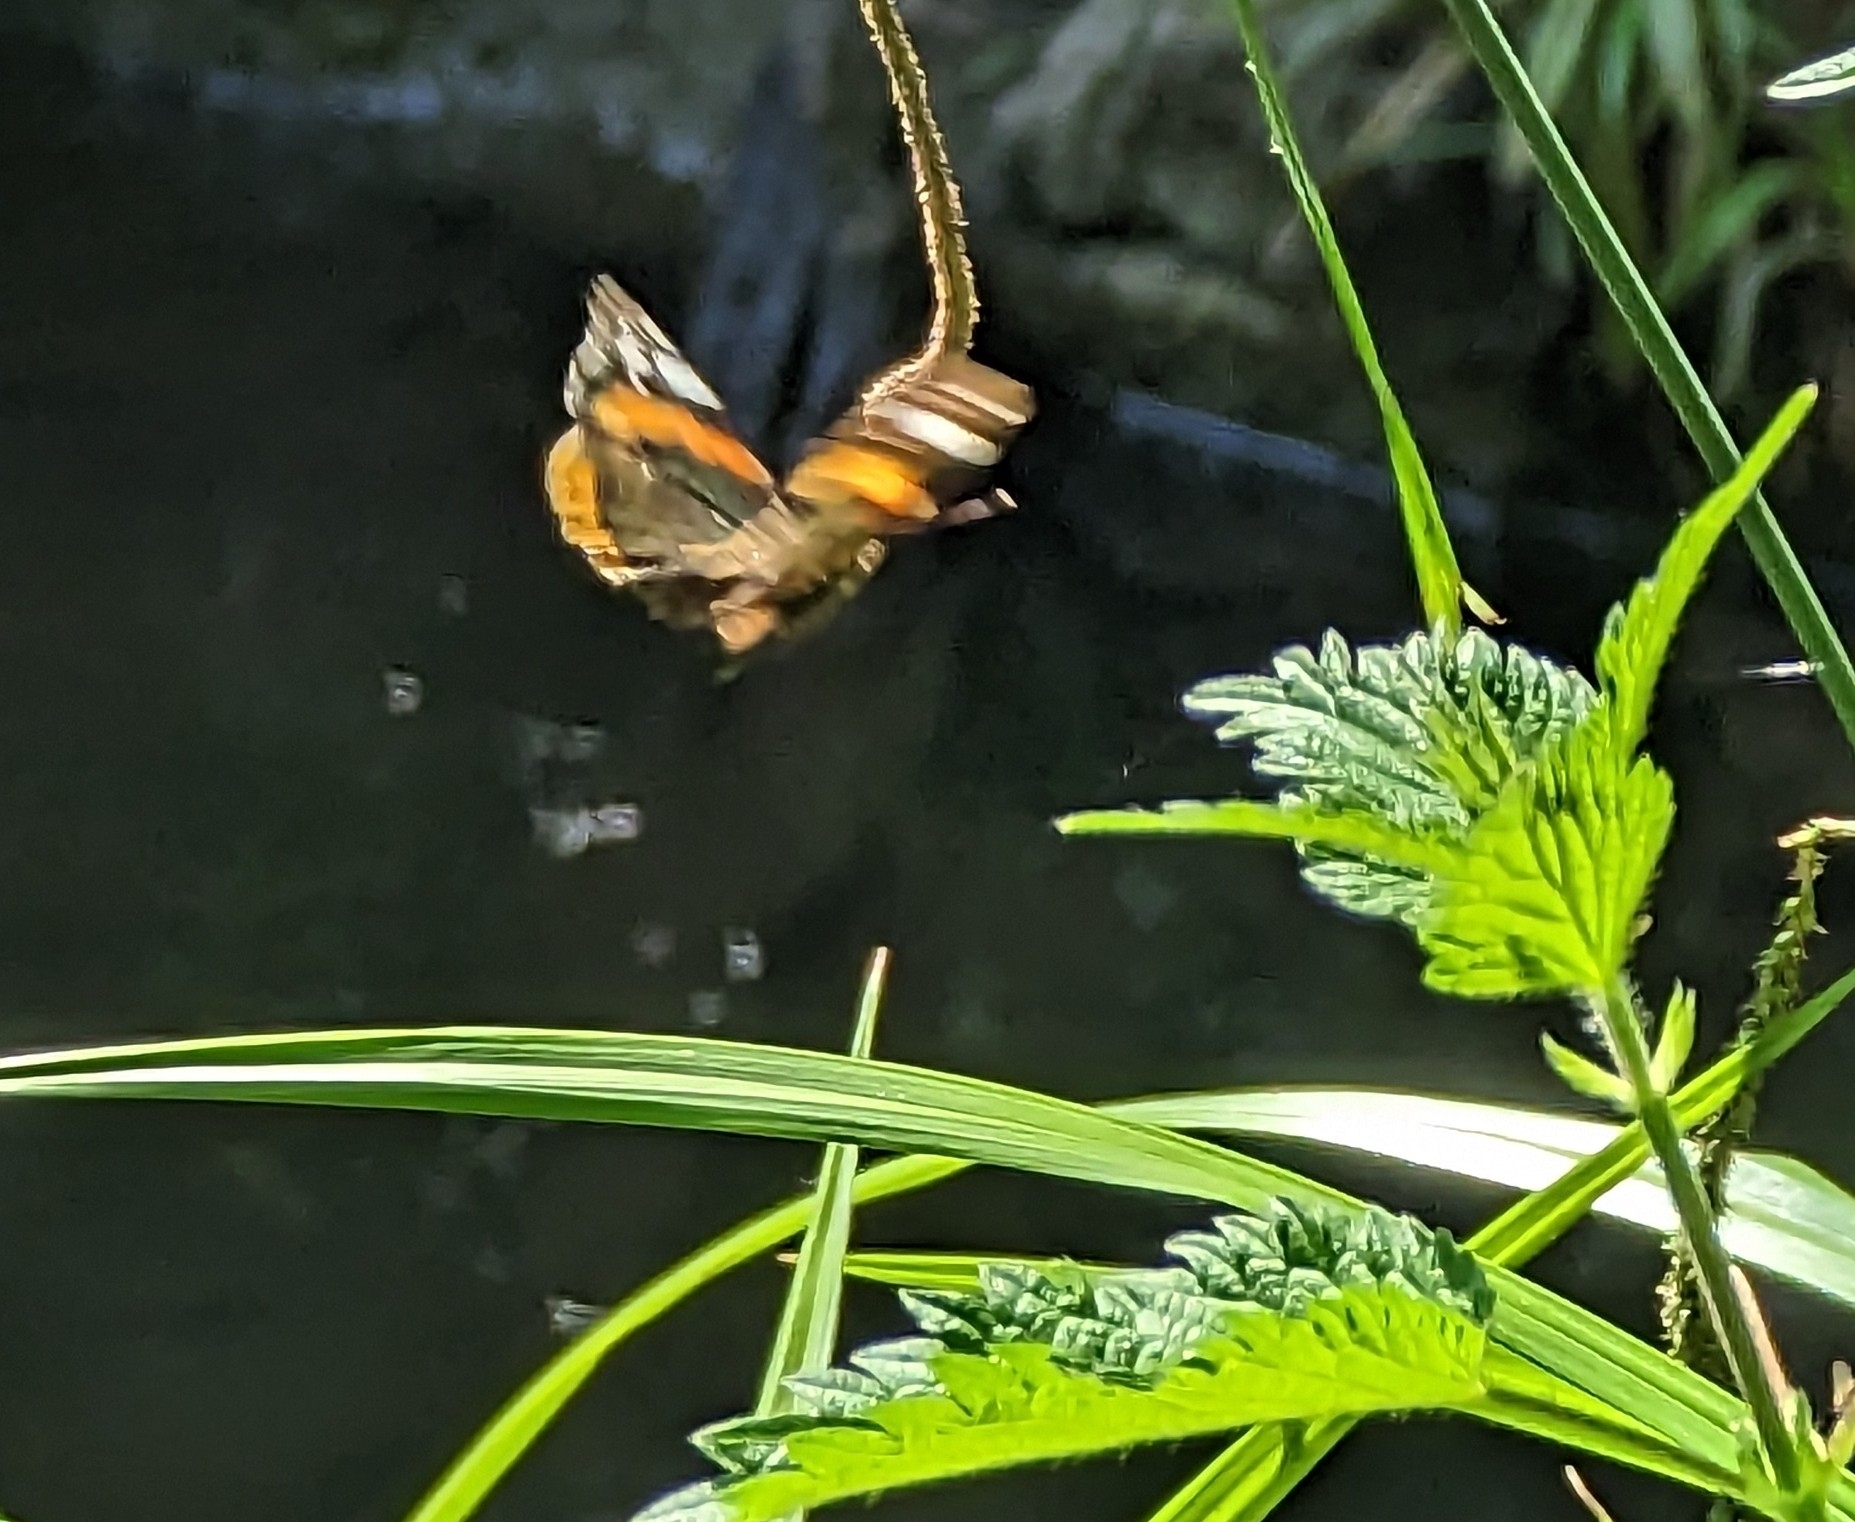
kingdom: Animalia
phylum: Arthropoda
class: Insecta
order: Lepidoptera
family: Nymphalidae
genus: Vanessa
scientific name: Vanessa atalanta
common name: Red admiral
